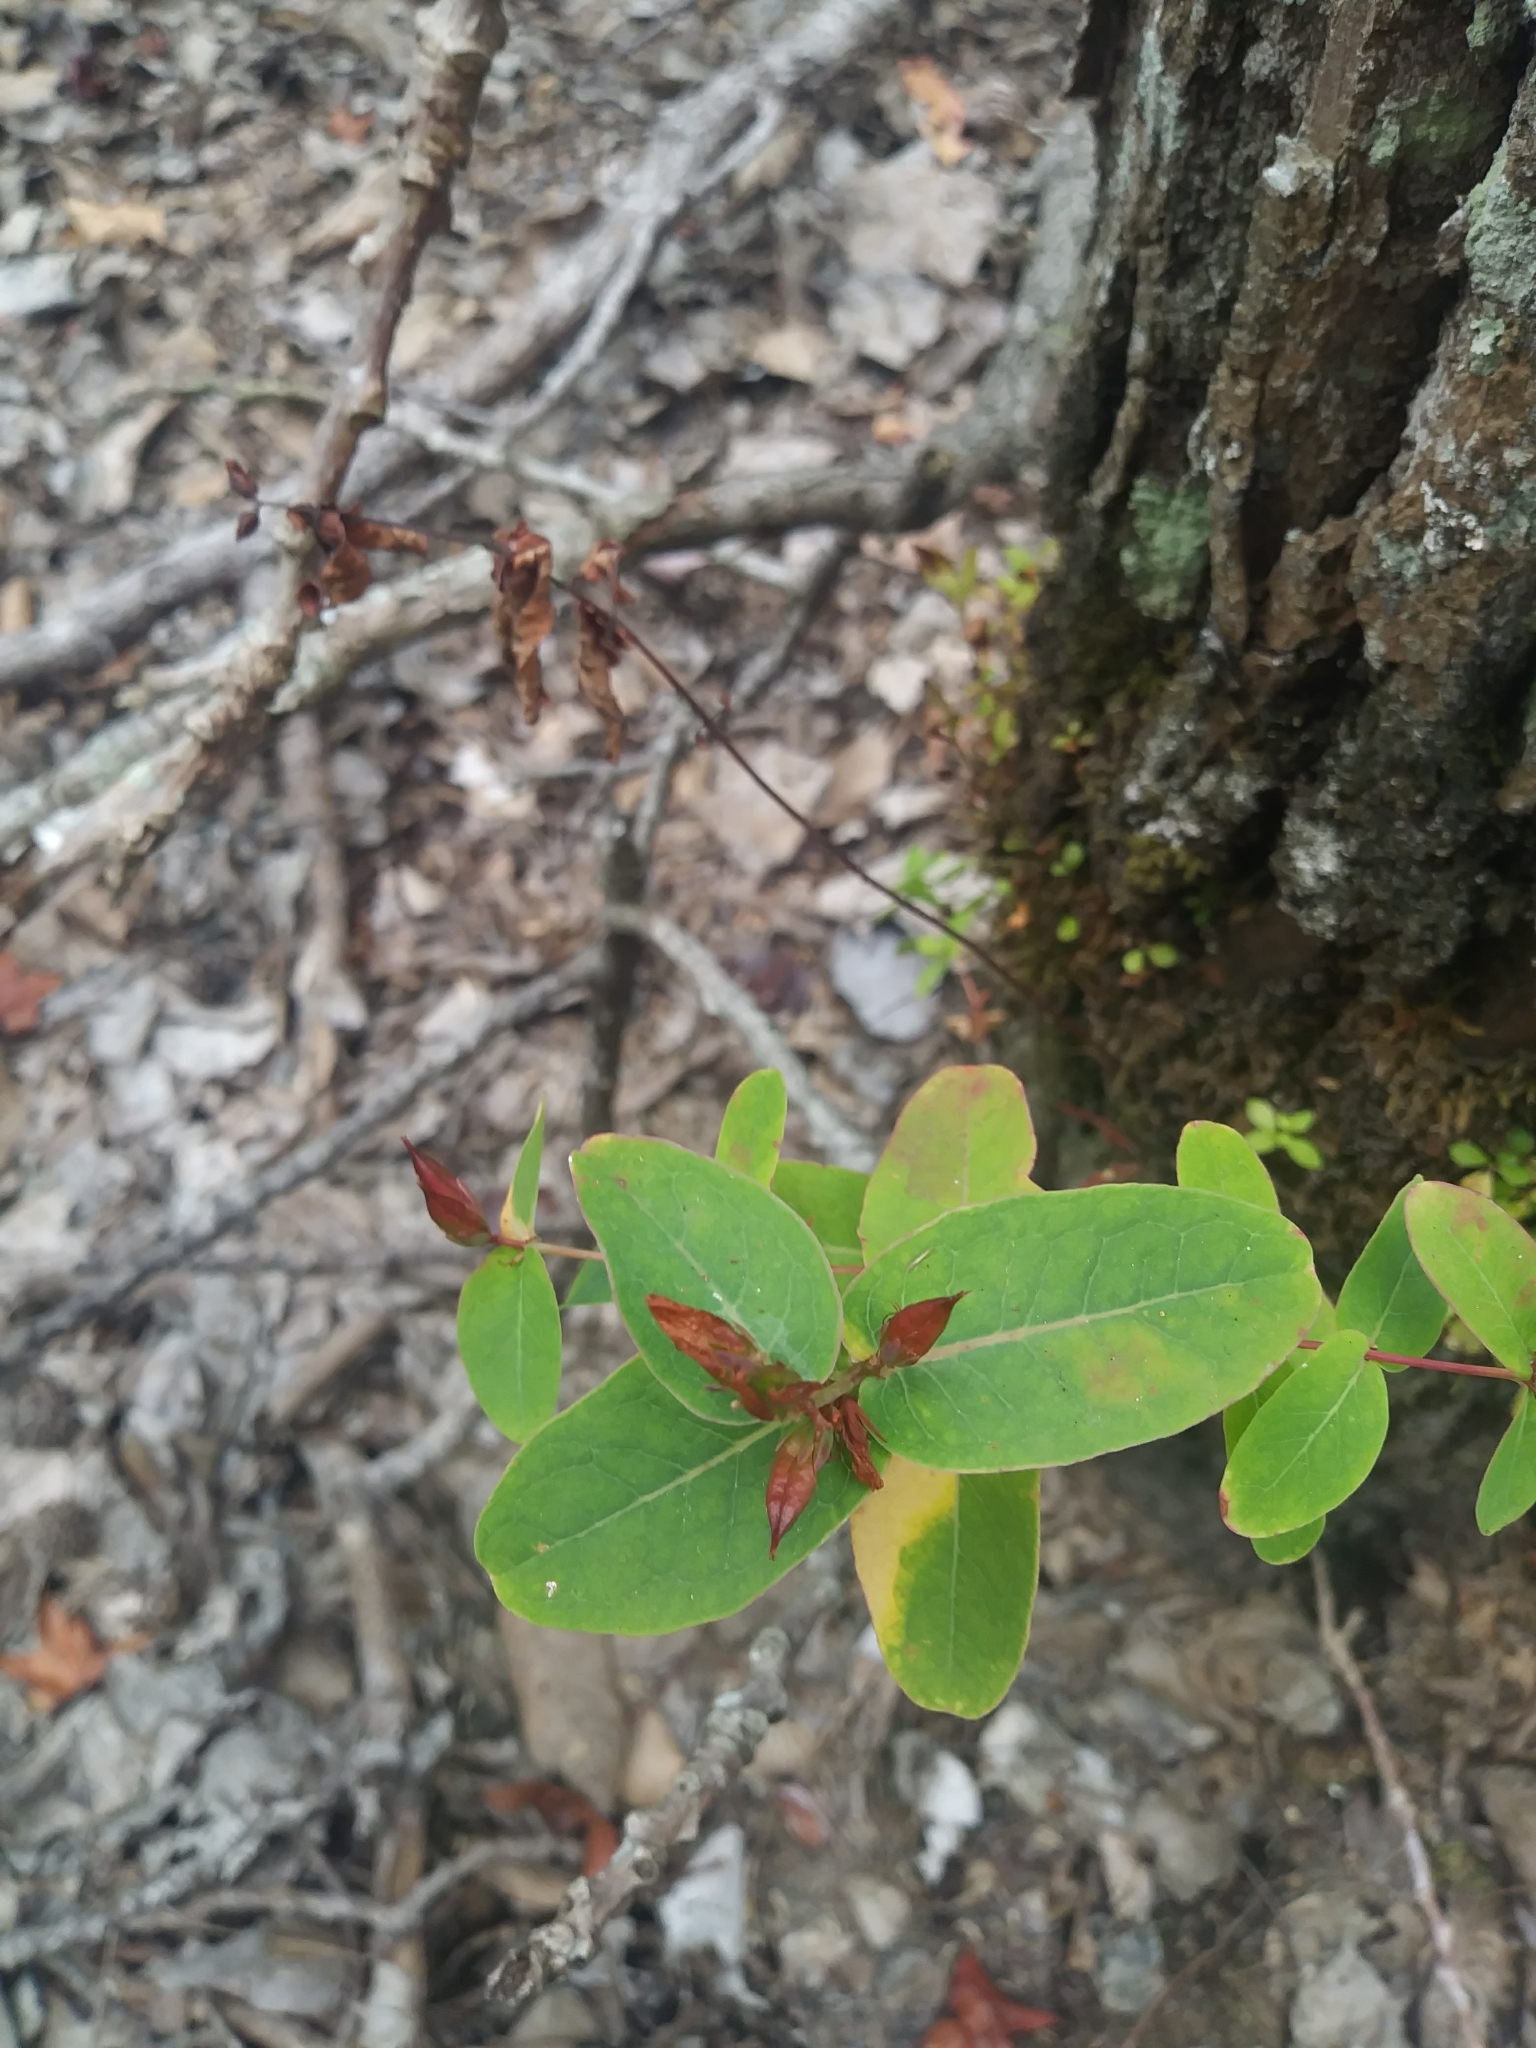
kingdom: Plantae
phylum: Tracheophyta
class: Magnoliopsida
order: Malpighiales
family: Hypericaceae
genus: Triadenum
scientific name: Triadenum virginicum
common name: Marsh st. john's-wort
